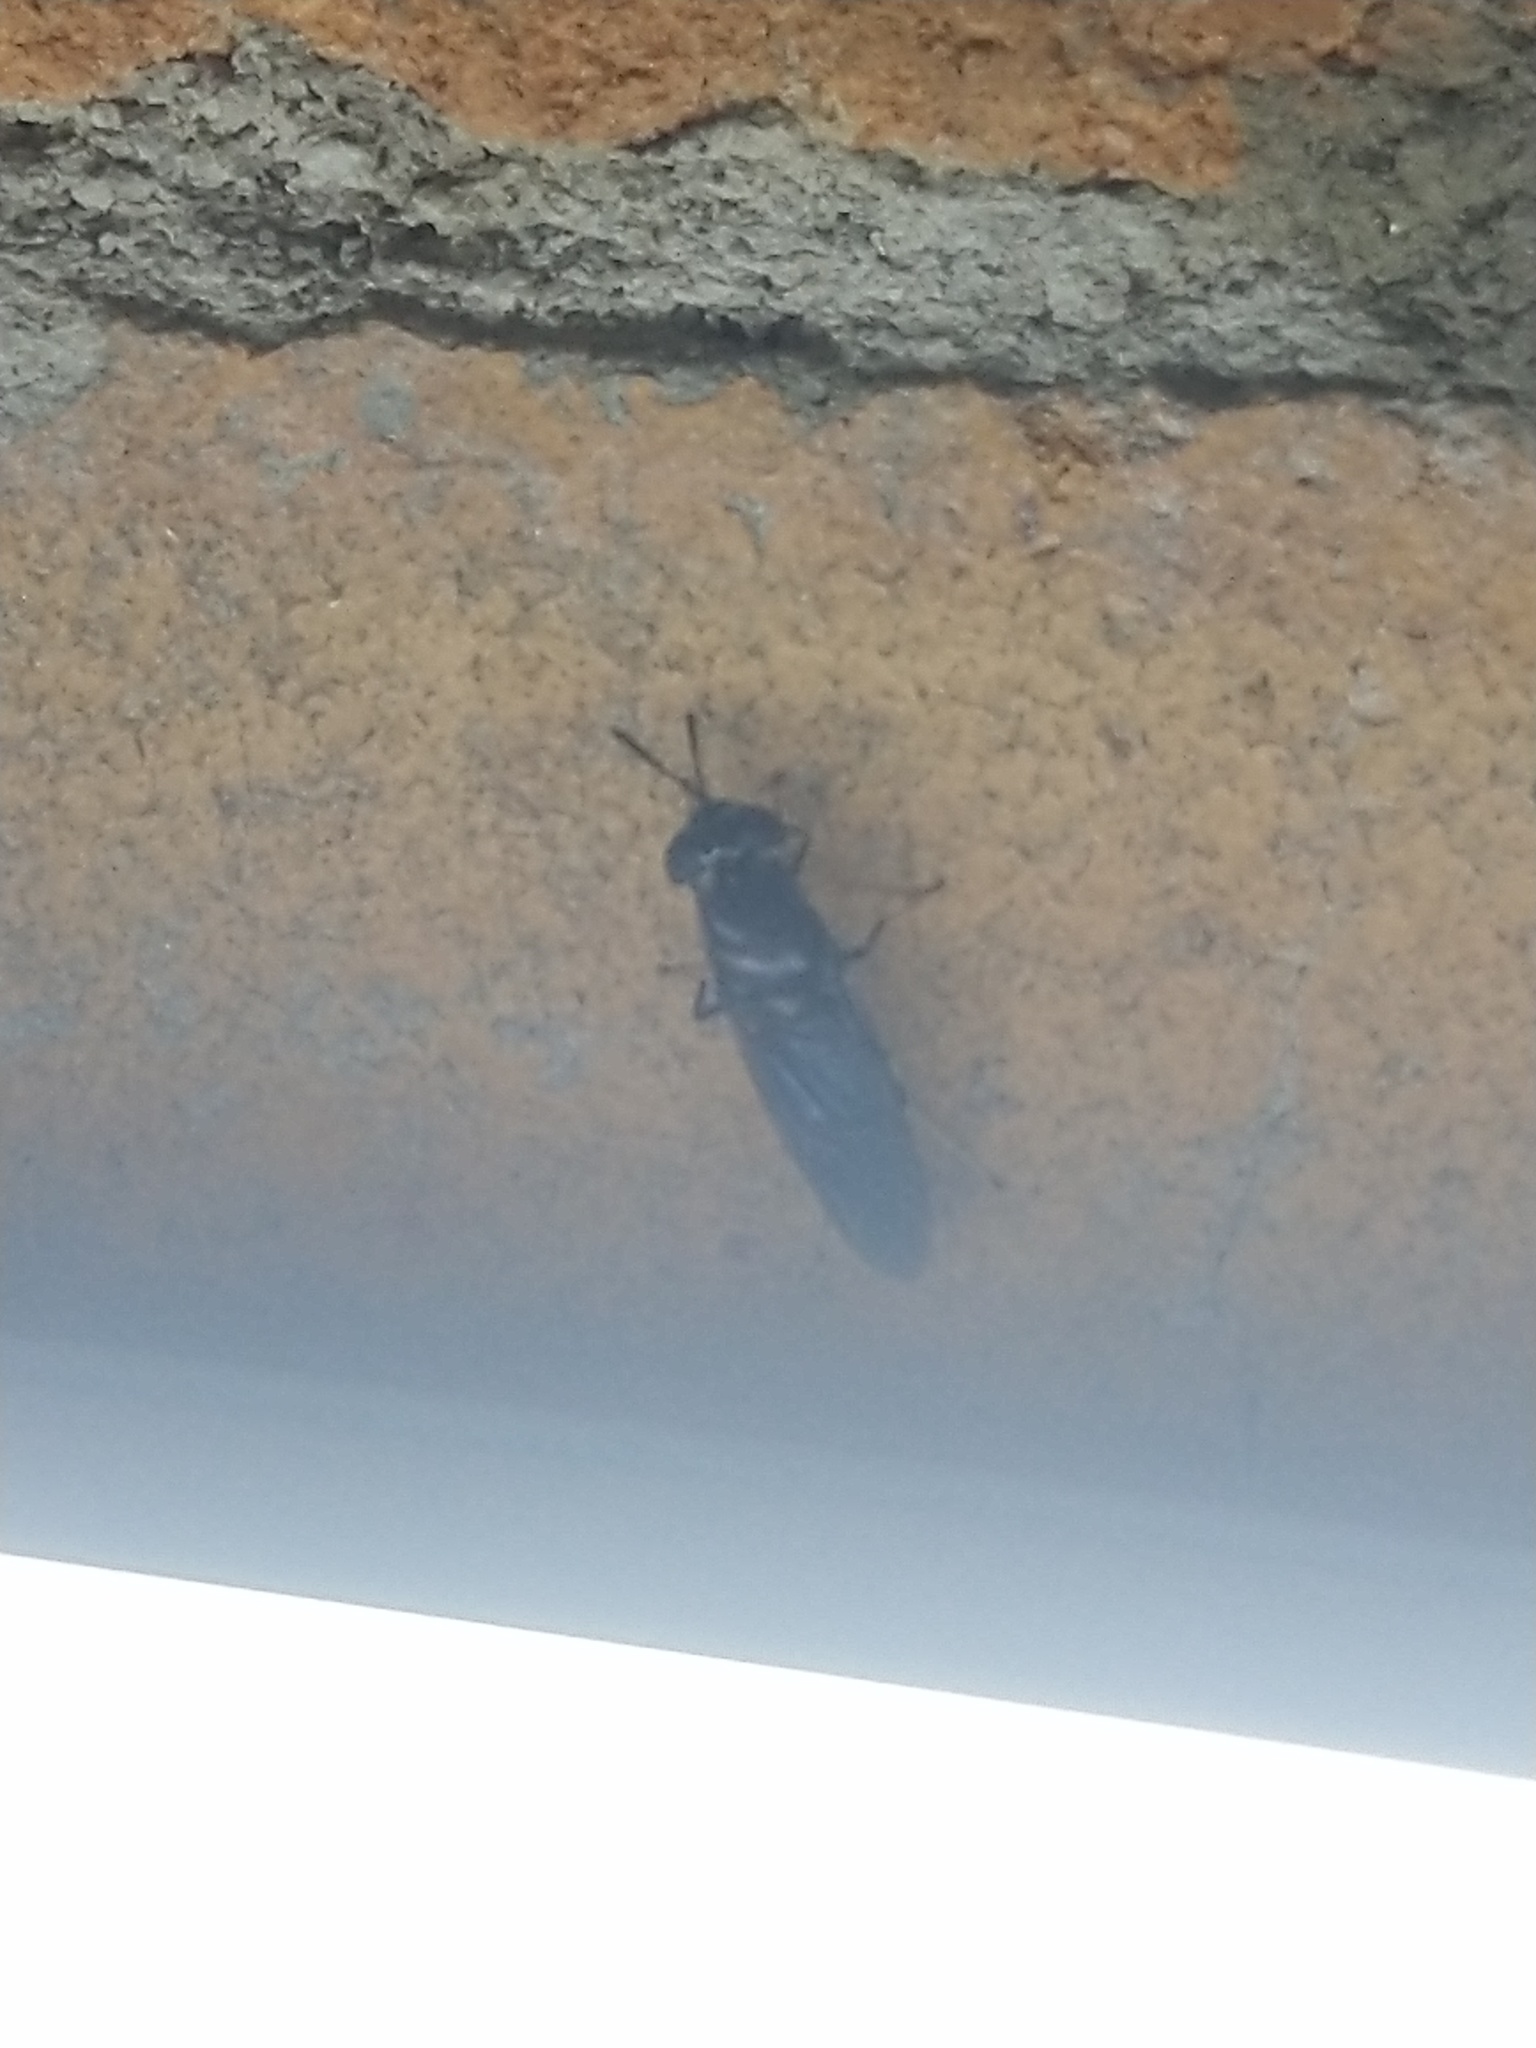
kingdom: Animalia
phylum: Arthropoda
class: Insecta
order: Diptera
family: Stratiomyidae
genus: Hermetia
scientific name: Hermetia illucens
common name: Black soldier fly
